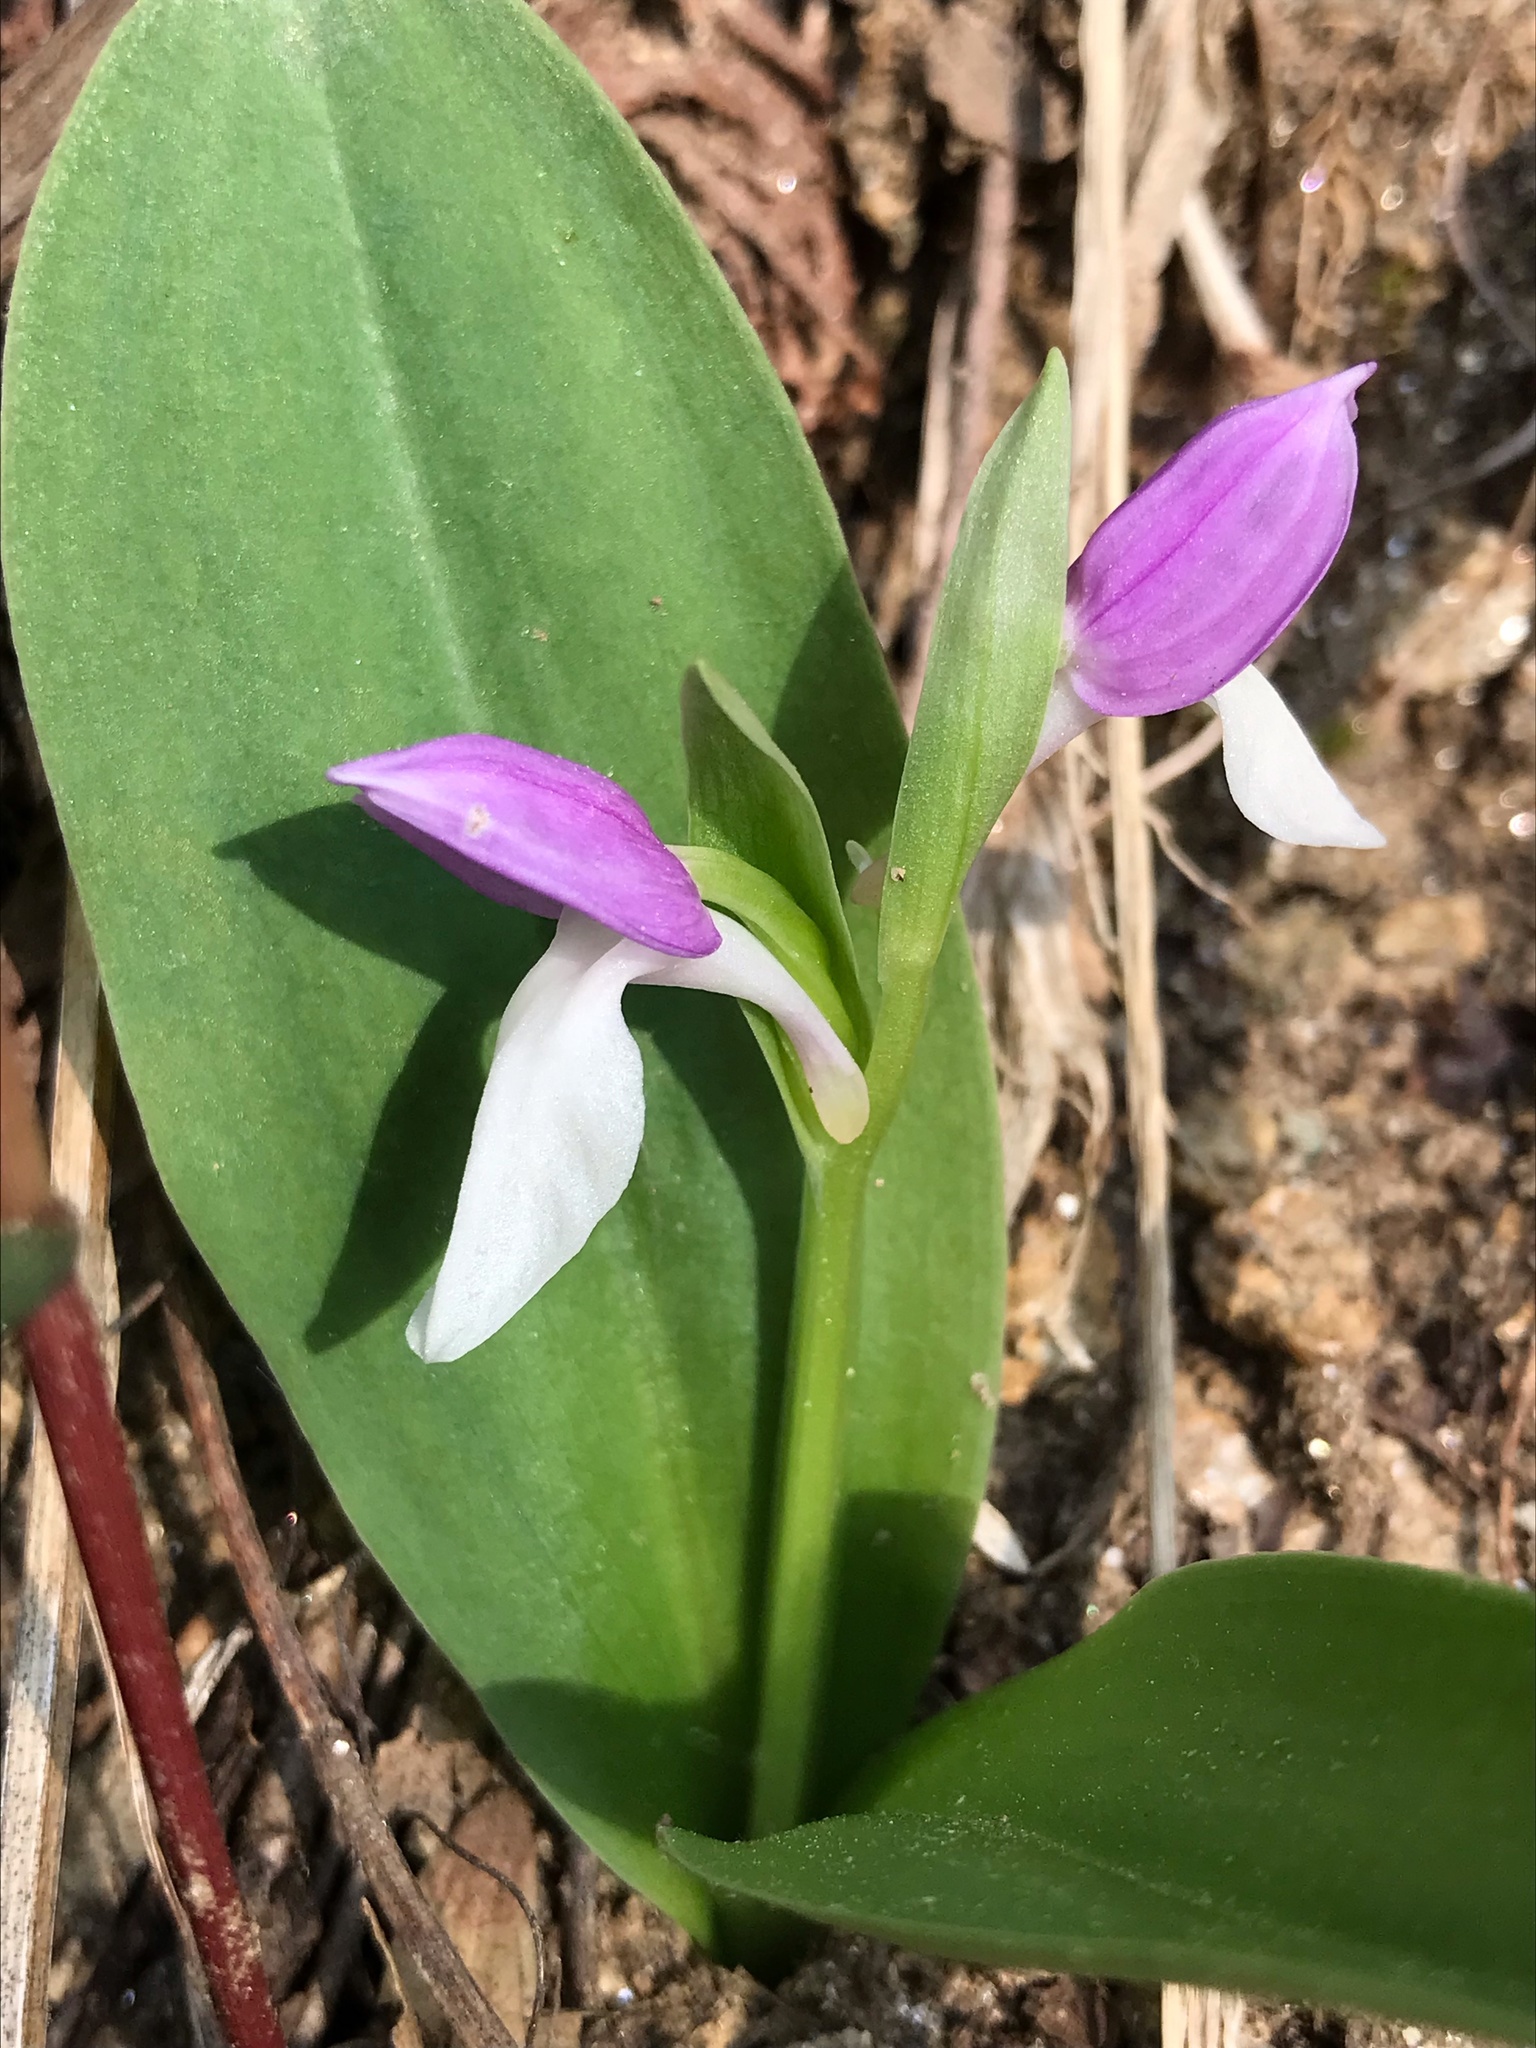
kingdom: Plantae
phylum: Tracheophyta
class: Liliopsida
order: Asparagales
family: Orchidaceae
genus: Galearis
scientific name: Galearis spectabilis
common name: Purple-hooded orchis
